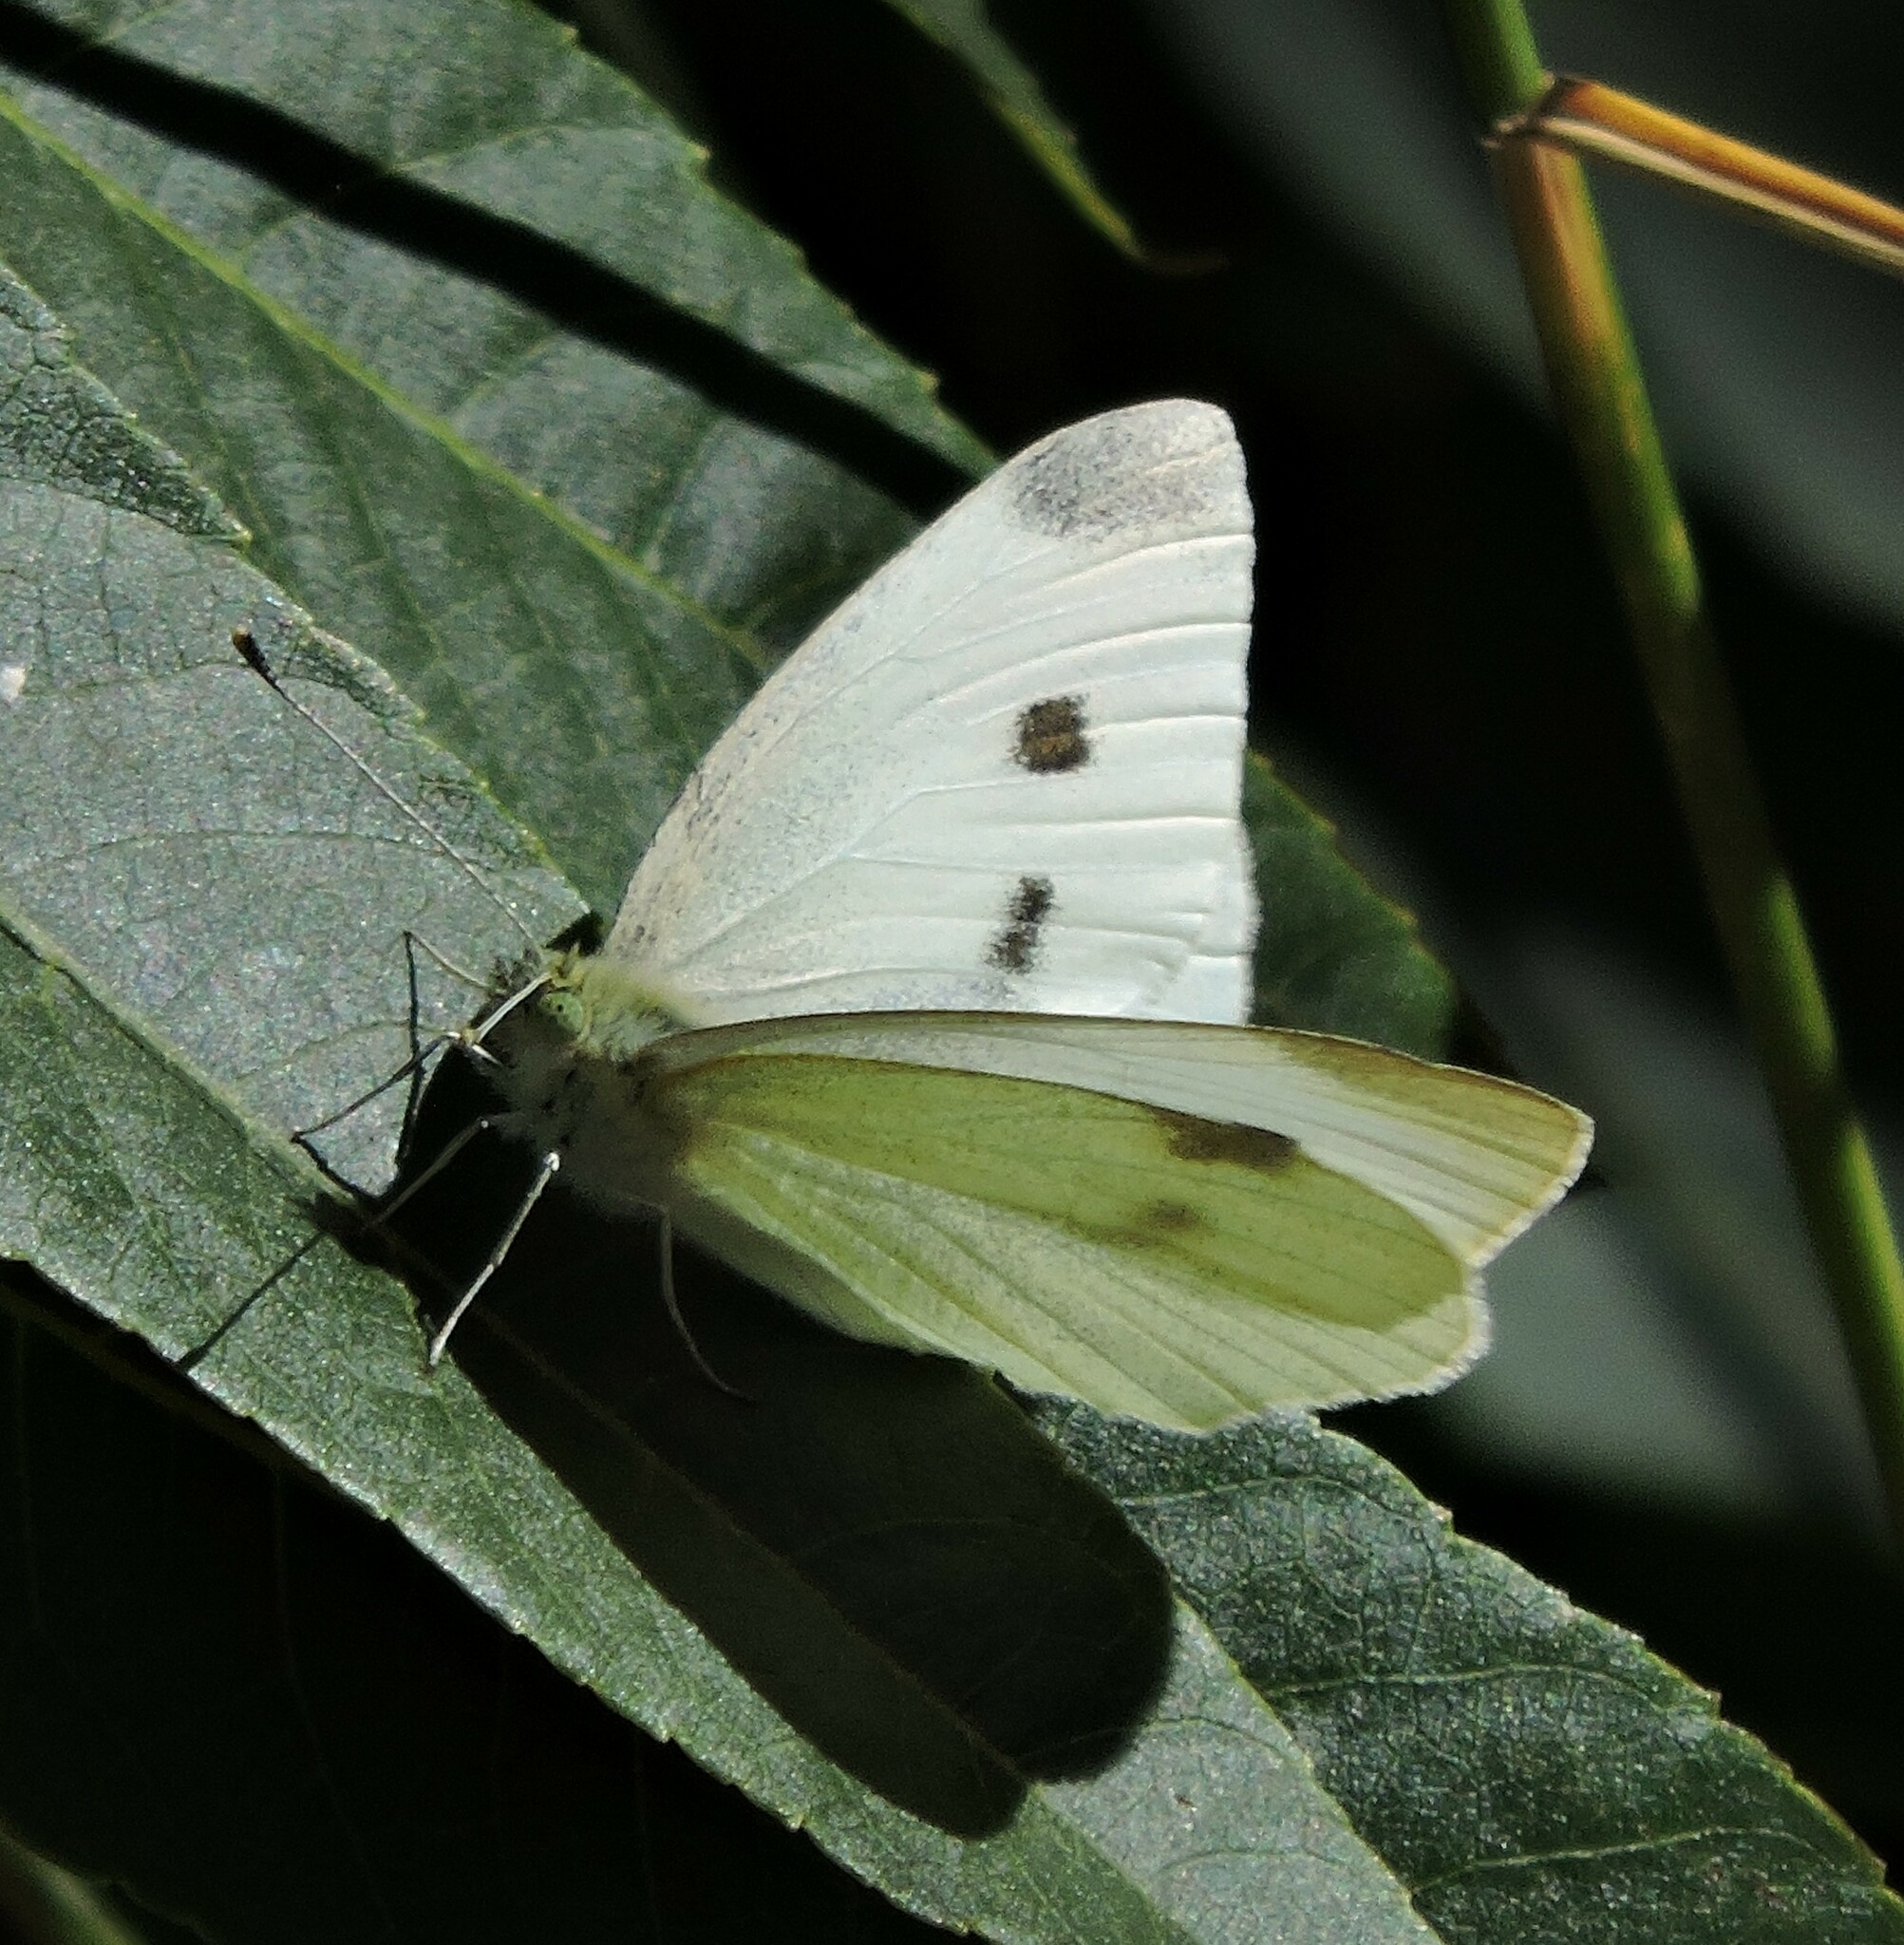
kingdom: Animalia
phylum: Arthropoda
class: Insecta
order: Lepidoptera
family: Pieridae
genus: Pieris
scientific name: Pieris rapae
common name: Small white
